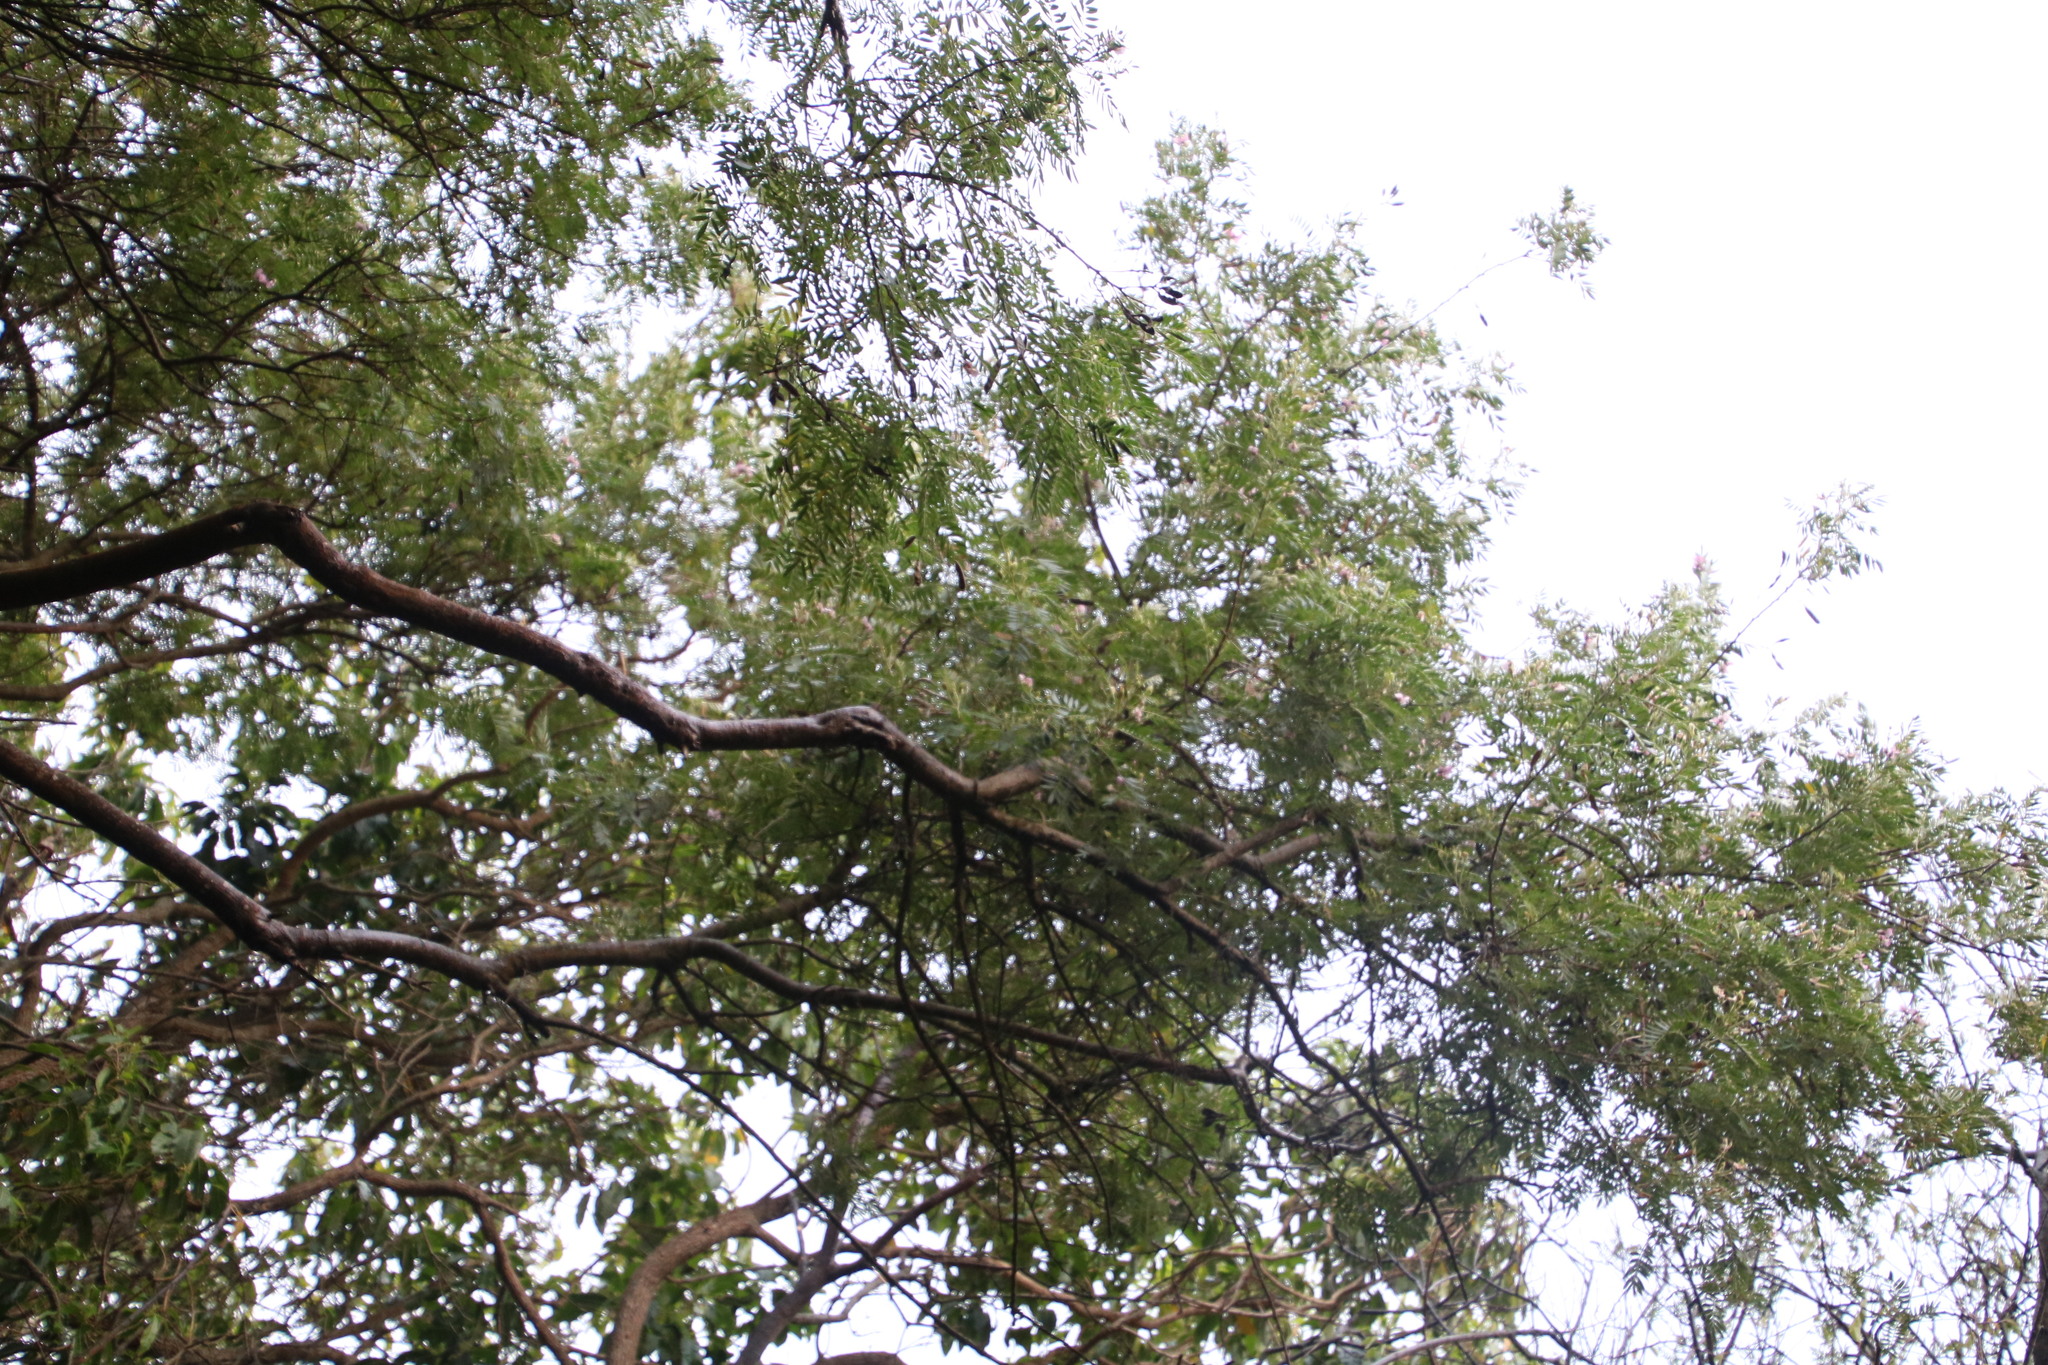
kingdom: Plantae
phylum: Tracheophyta
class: Magnoliopsida
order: Fabales
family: Fabaceae
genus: Virgilia
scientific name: Virgilia oroboides
